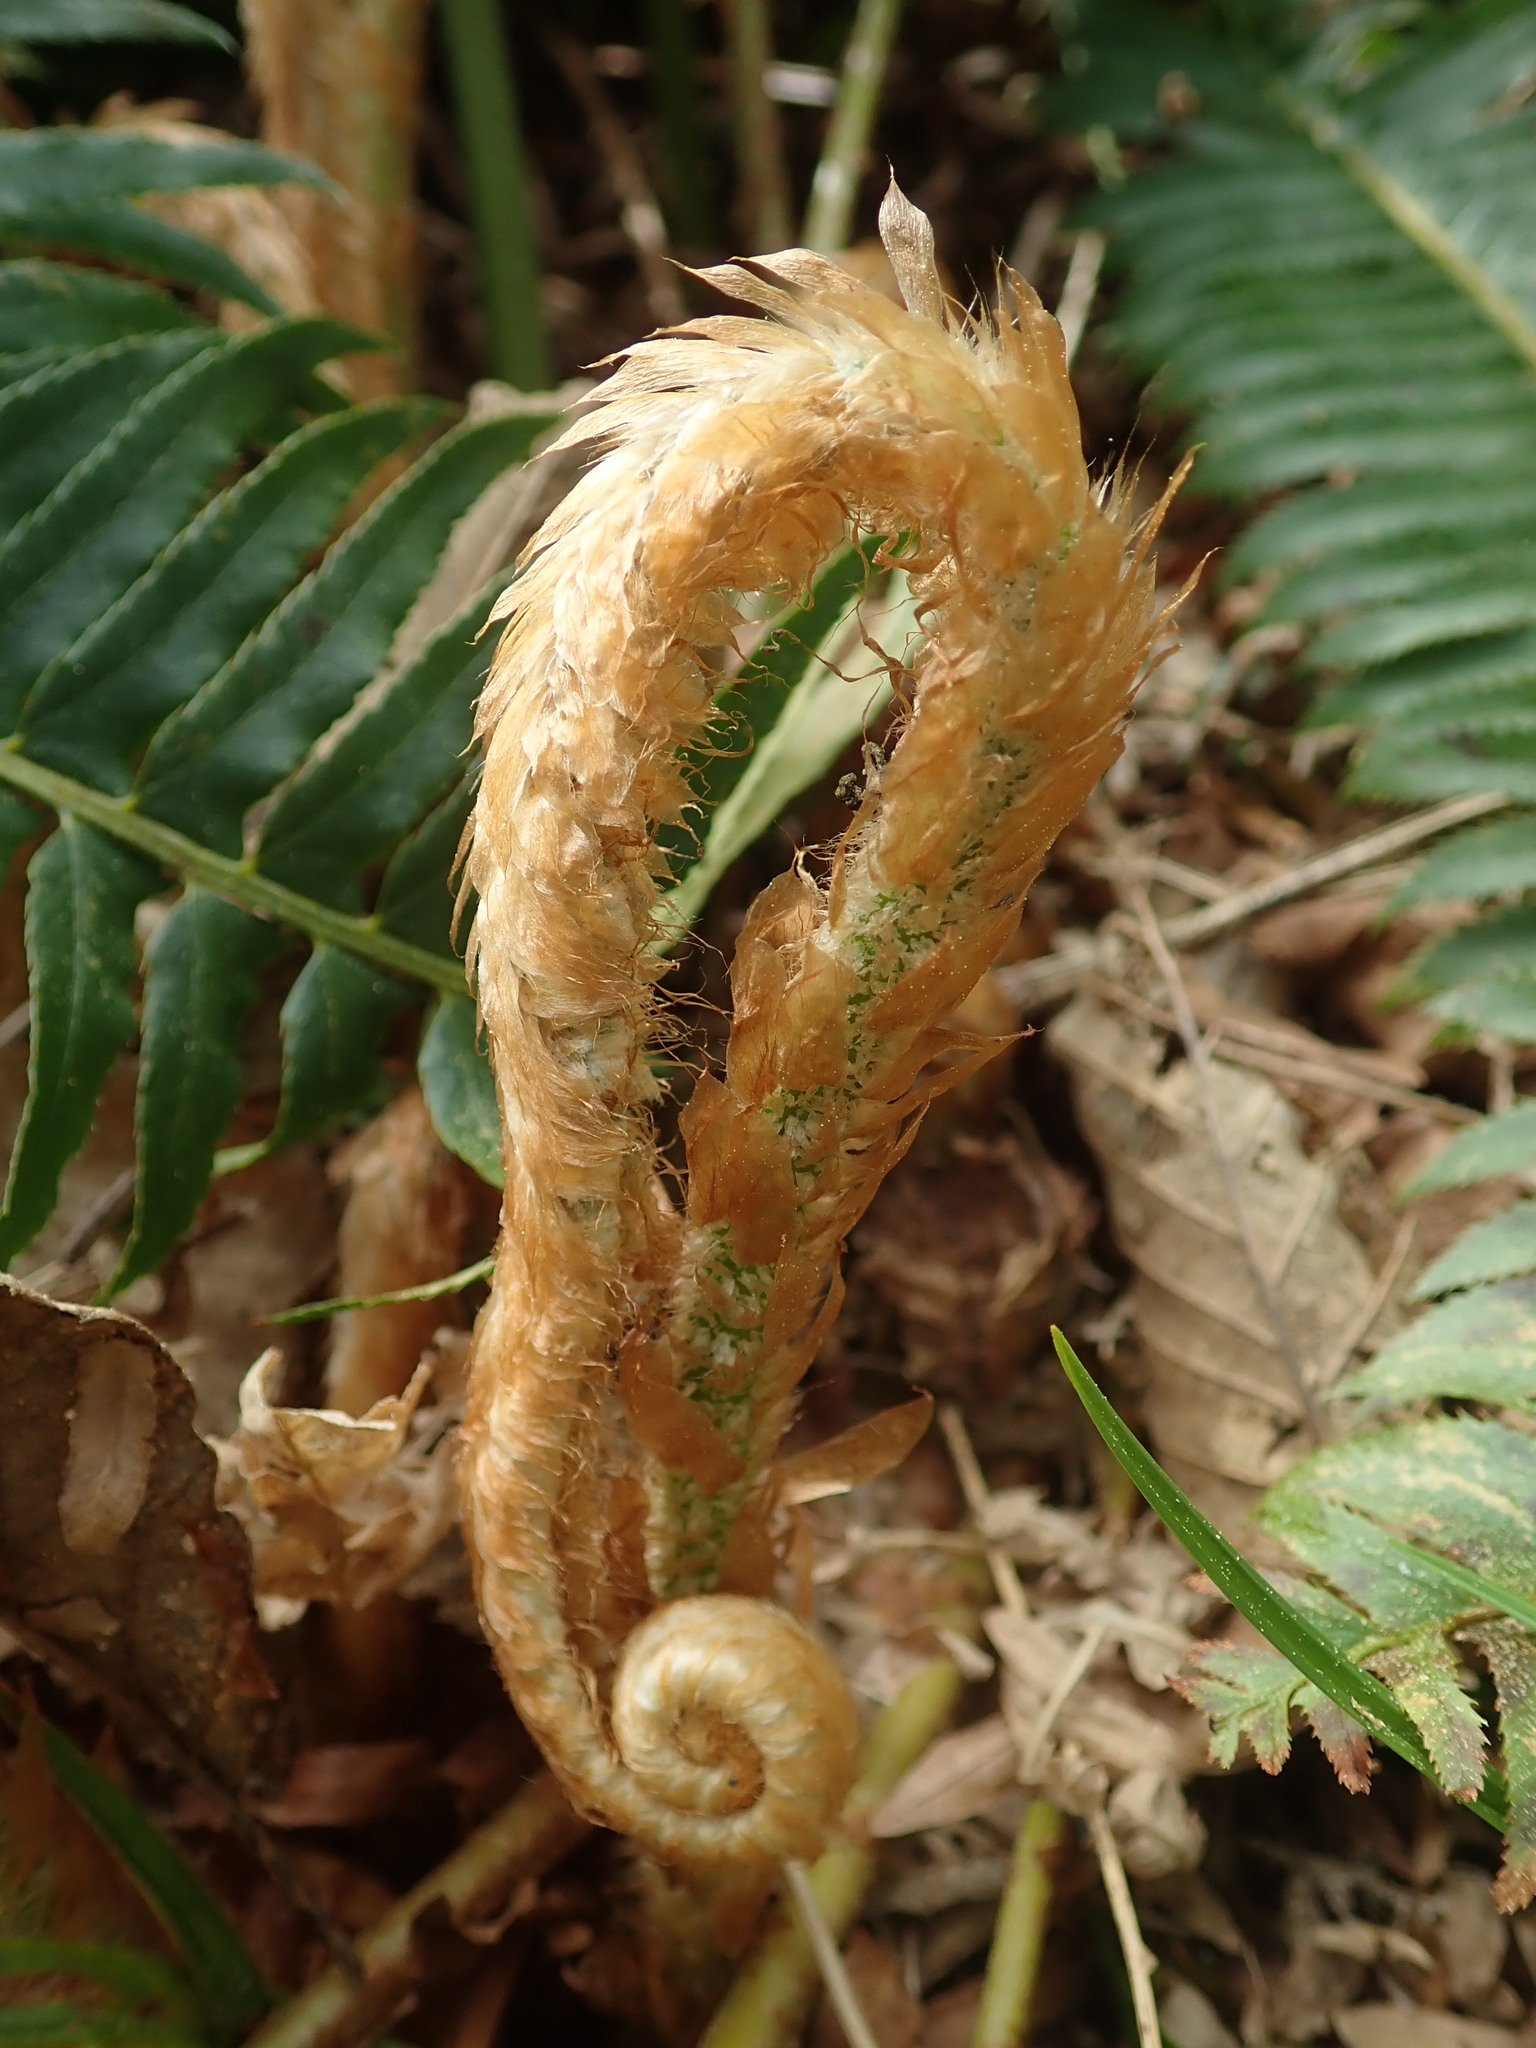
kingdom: Plantae
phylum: Tracheophyta
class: Polypodiopsida
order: Polypodiales
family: Dryopteridaceae
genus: Polystichum
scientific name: Polystichum munitum
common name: Western sword-fern
